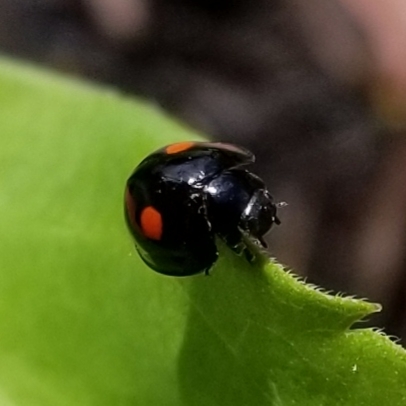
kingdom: Animalia
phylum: Arthropoda
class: Insecta
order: Coleoptera
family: Coccinellidae
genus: Chilocorus
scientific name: Chilocorus stigma
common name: Twicestabbed lady beetle
